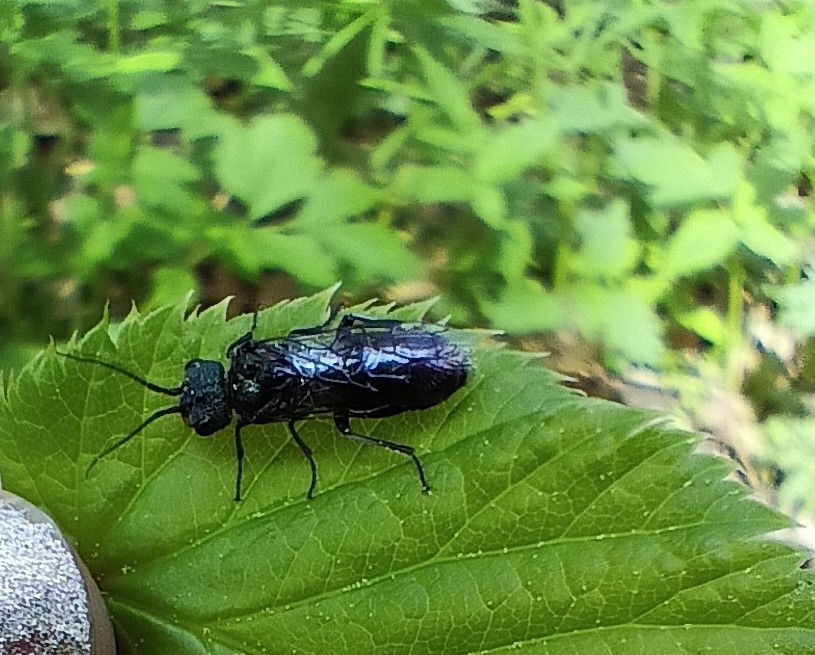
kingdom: Animalia
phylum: Arthropoda
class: Insecta
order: Hymenoptera
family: Pamphiliidae
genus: Neurotoma
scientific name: Neurotoma mandibularis
